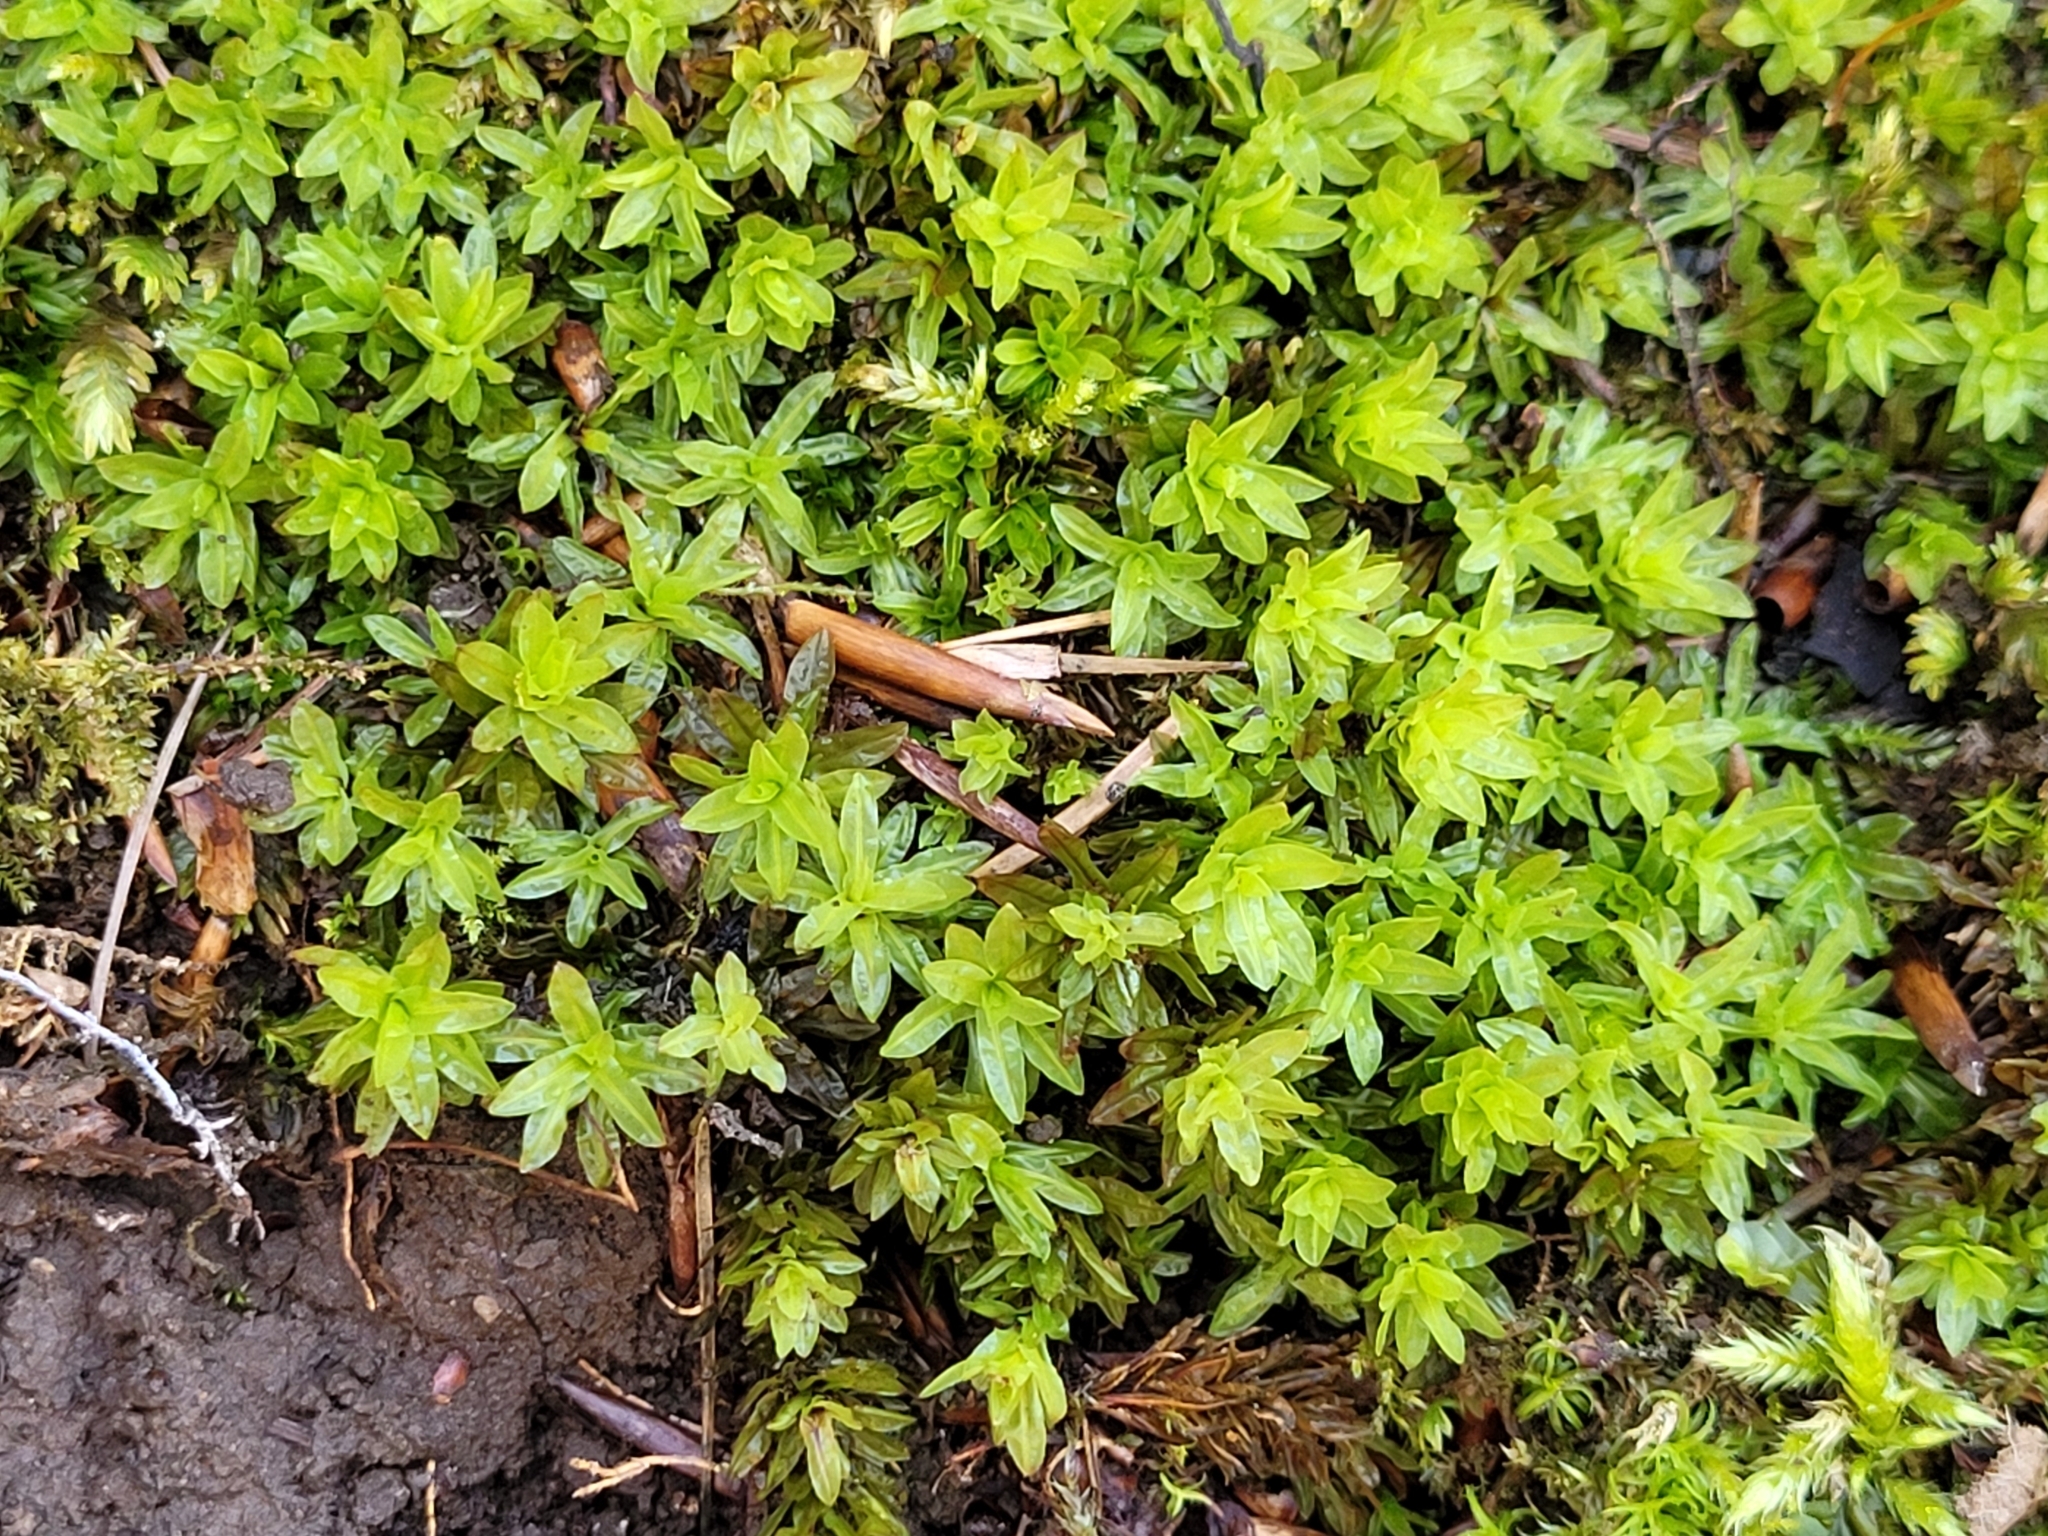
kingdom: Plantae
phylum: Bryophyta
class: Bryopsida
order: Encalyptales
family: Encalyptaceae
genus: Encalypta
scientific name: Encalypta streptocarpa
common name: Spiral extinguisher-moss
